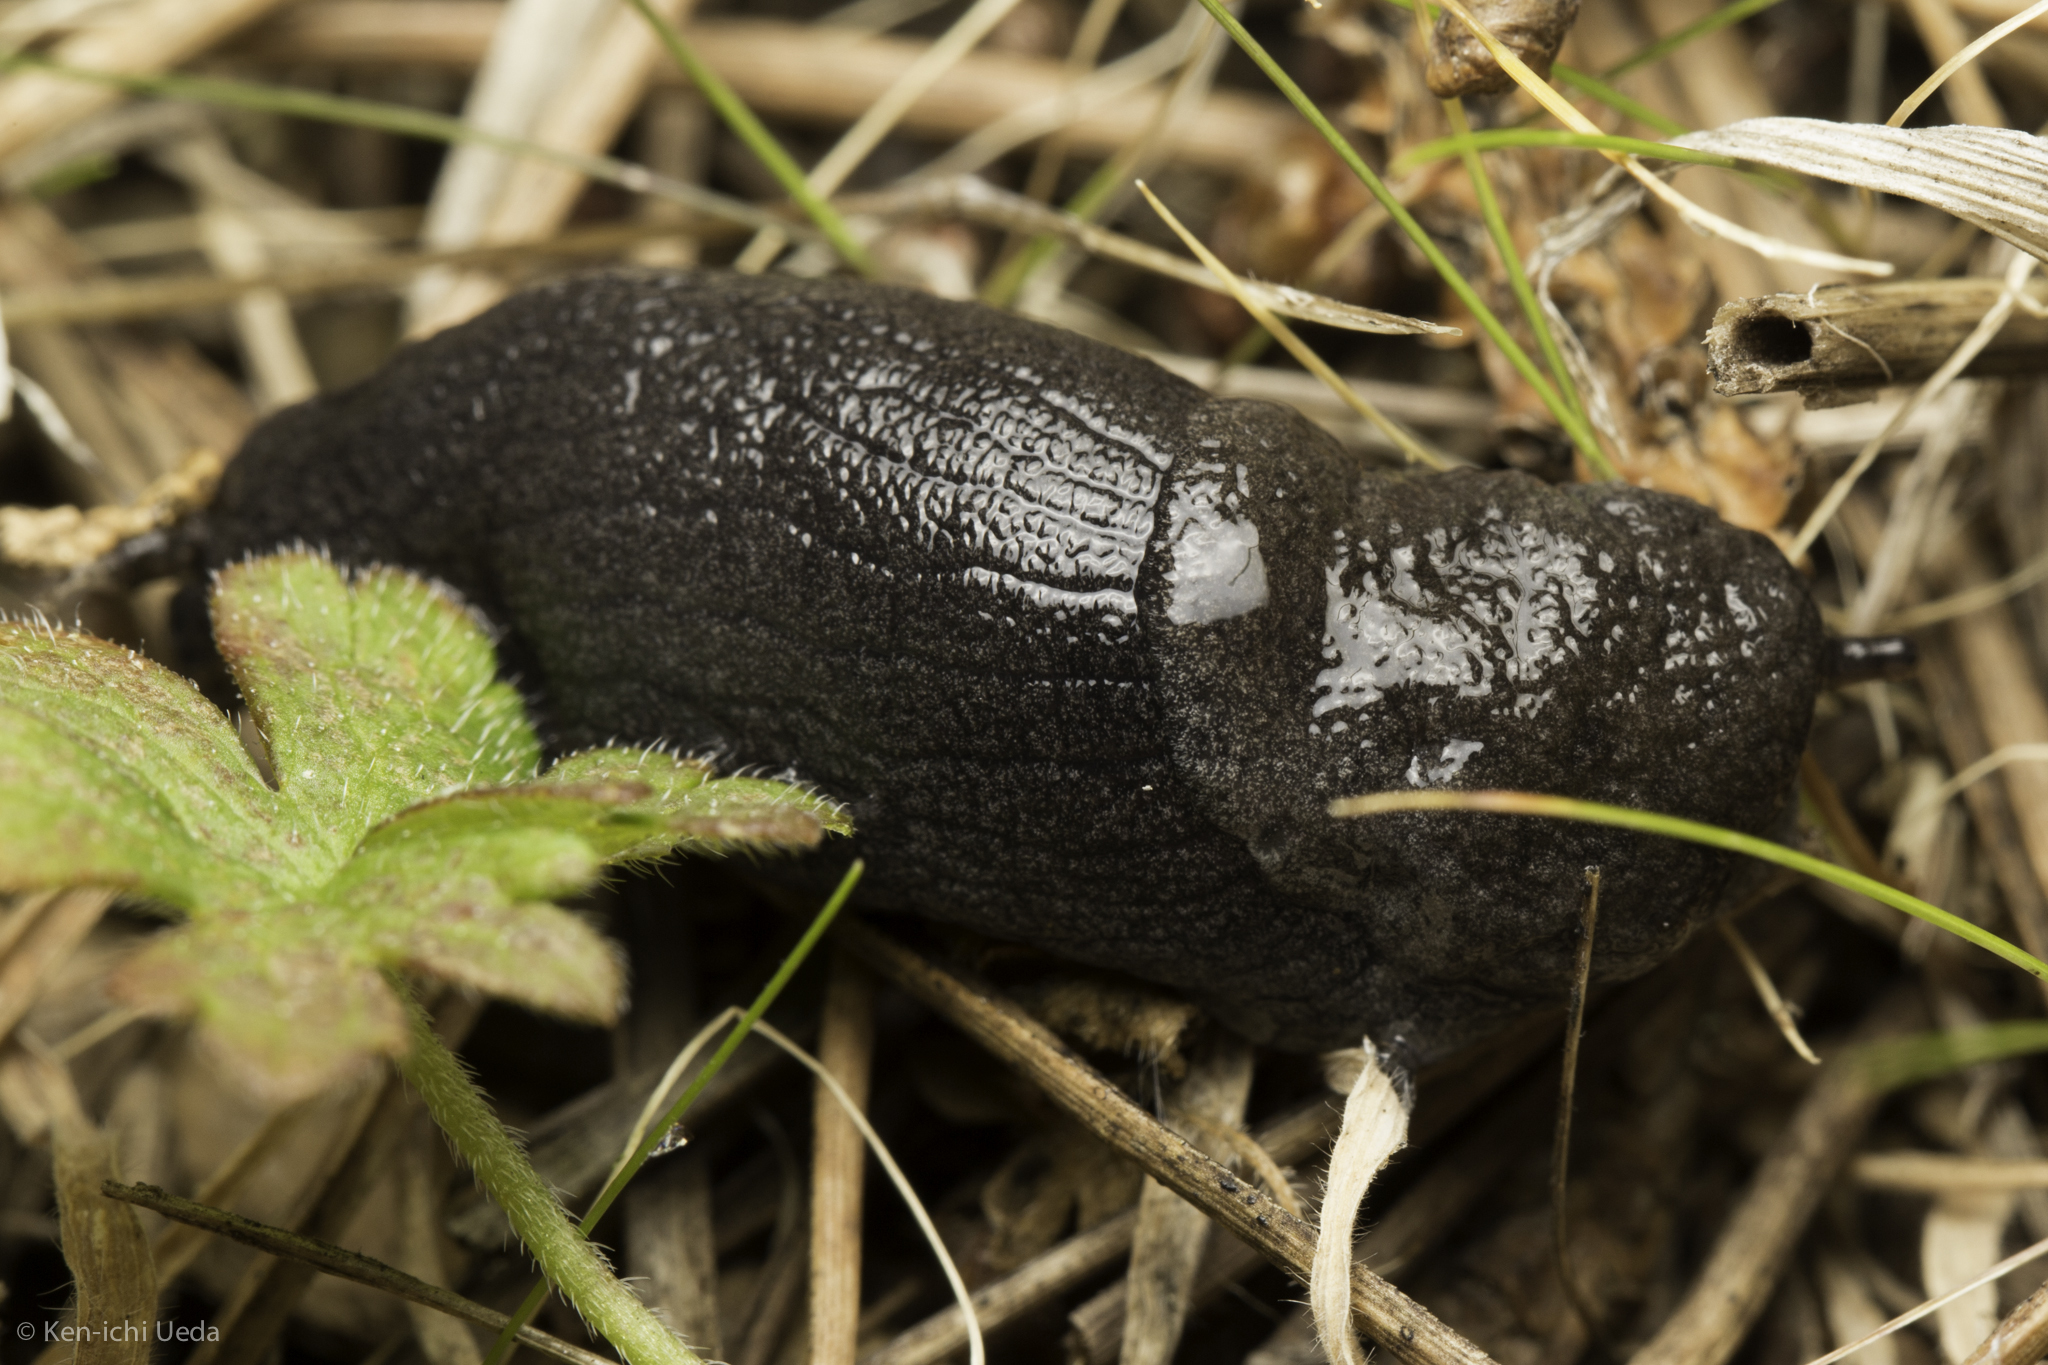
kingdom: Animalia
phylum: Mollusca
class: Gastropoda
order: Stylommatophora
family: Ariolimacidae
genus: Hesperarion
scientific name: Hesperarion niger
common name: Black western slug
